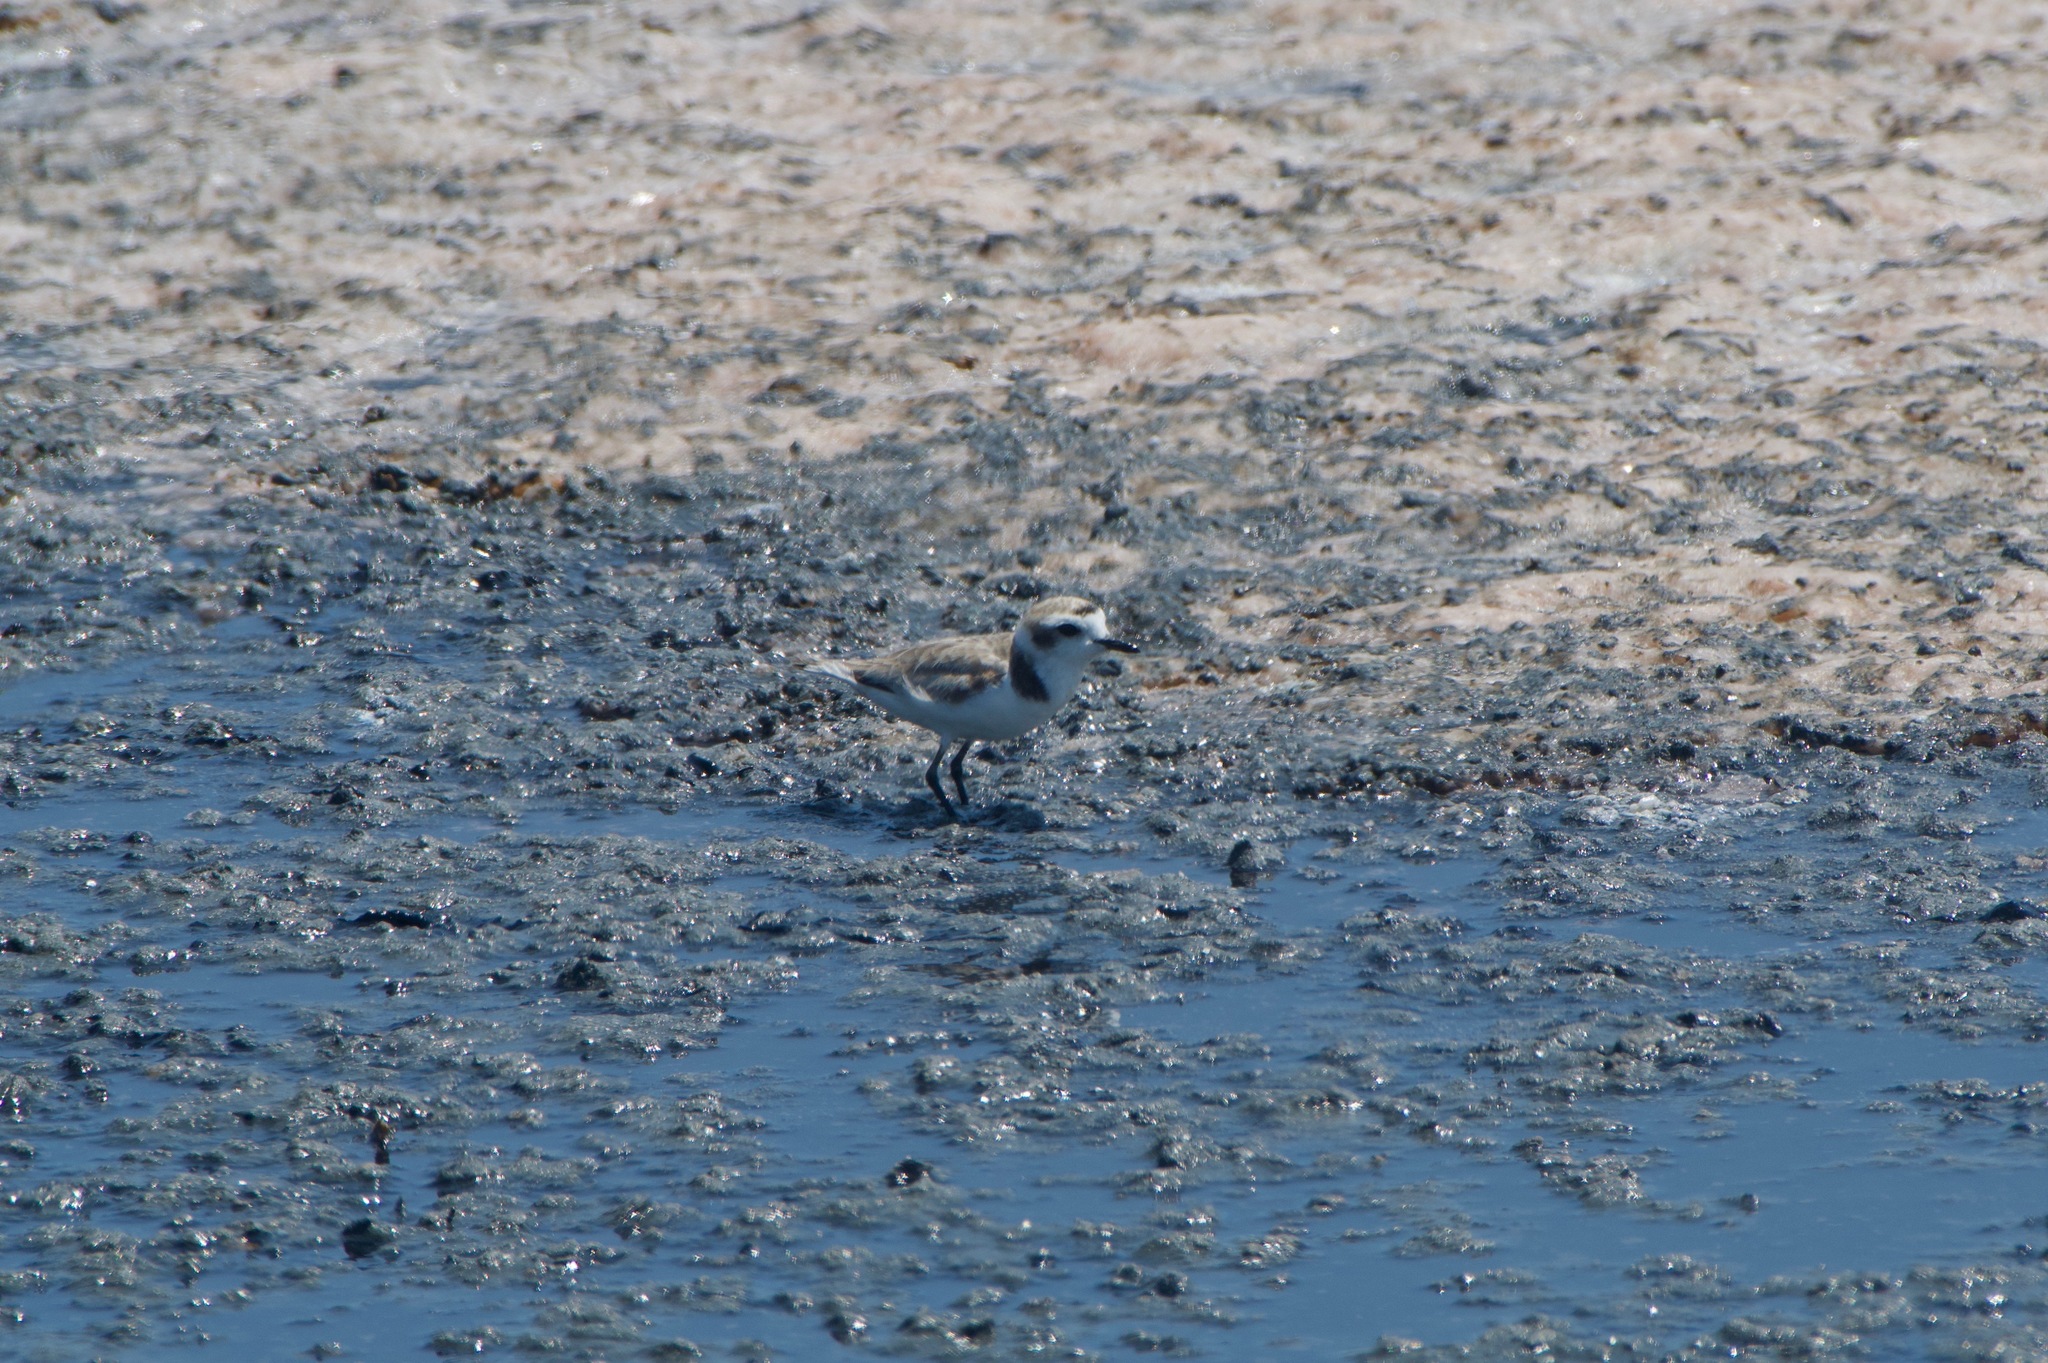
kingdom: Animalia
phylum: Chordata
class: Aves
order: Charadriiformes
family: Charadriidae
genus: Anarhynchus
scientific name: Anarhynchus
